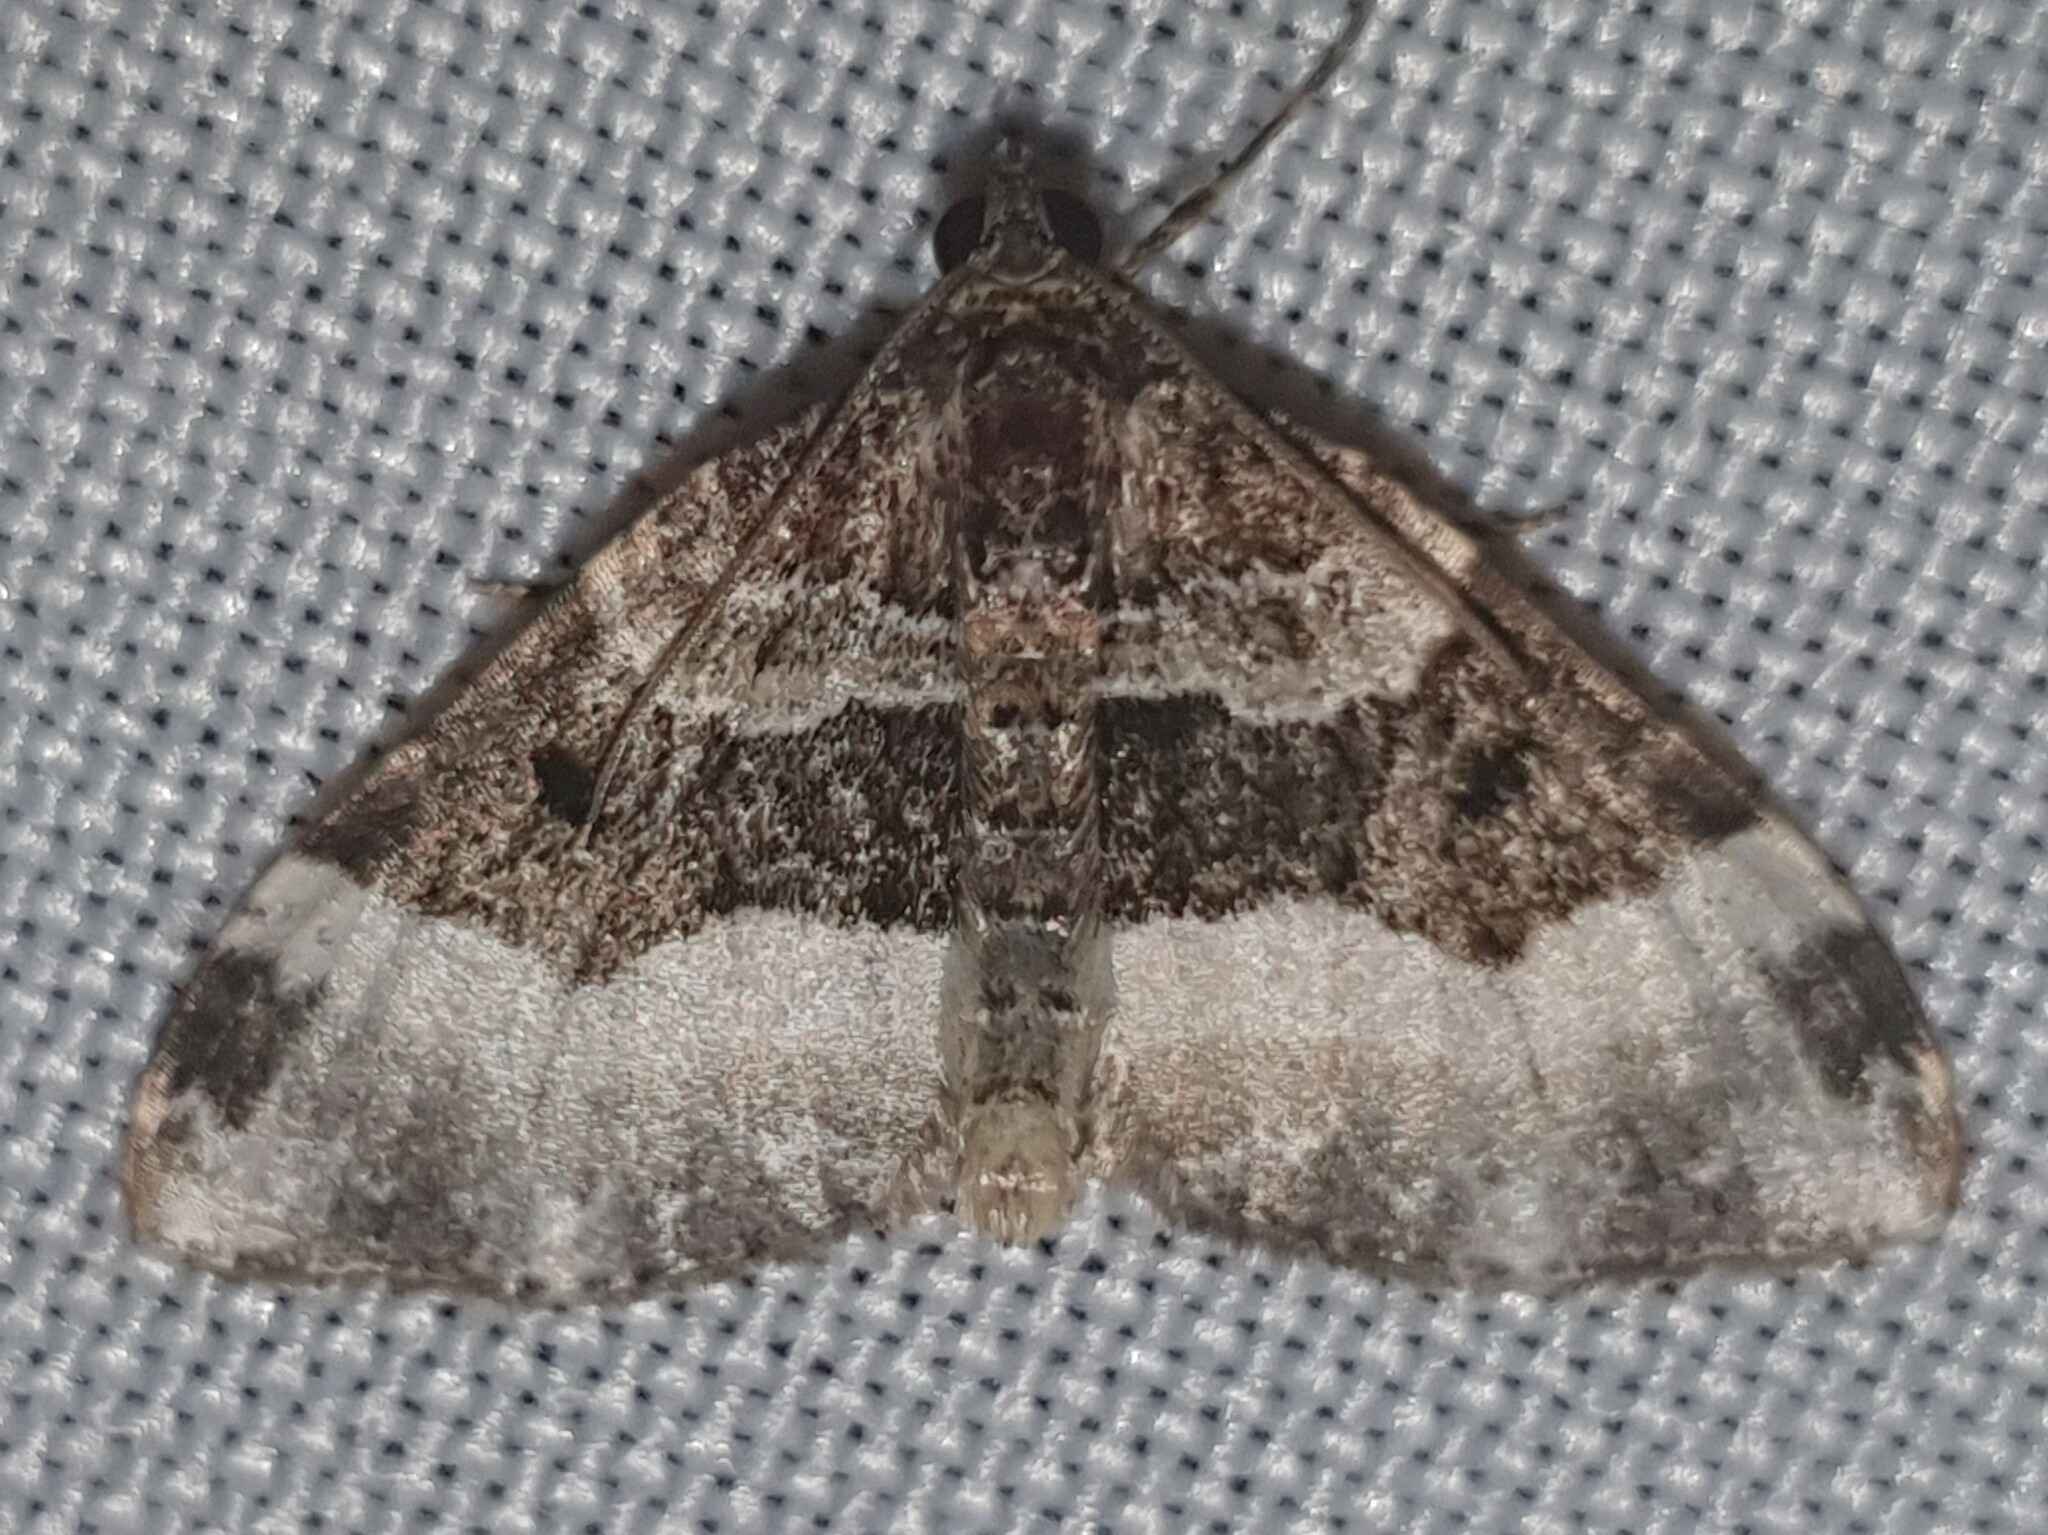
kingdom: Animalia
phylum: Arthropoda
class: Insecta
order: Lepidoptera
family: Geometridae
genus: Euphyia
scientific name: Euphyia unangulata
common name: Sharp-angled carpet
